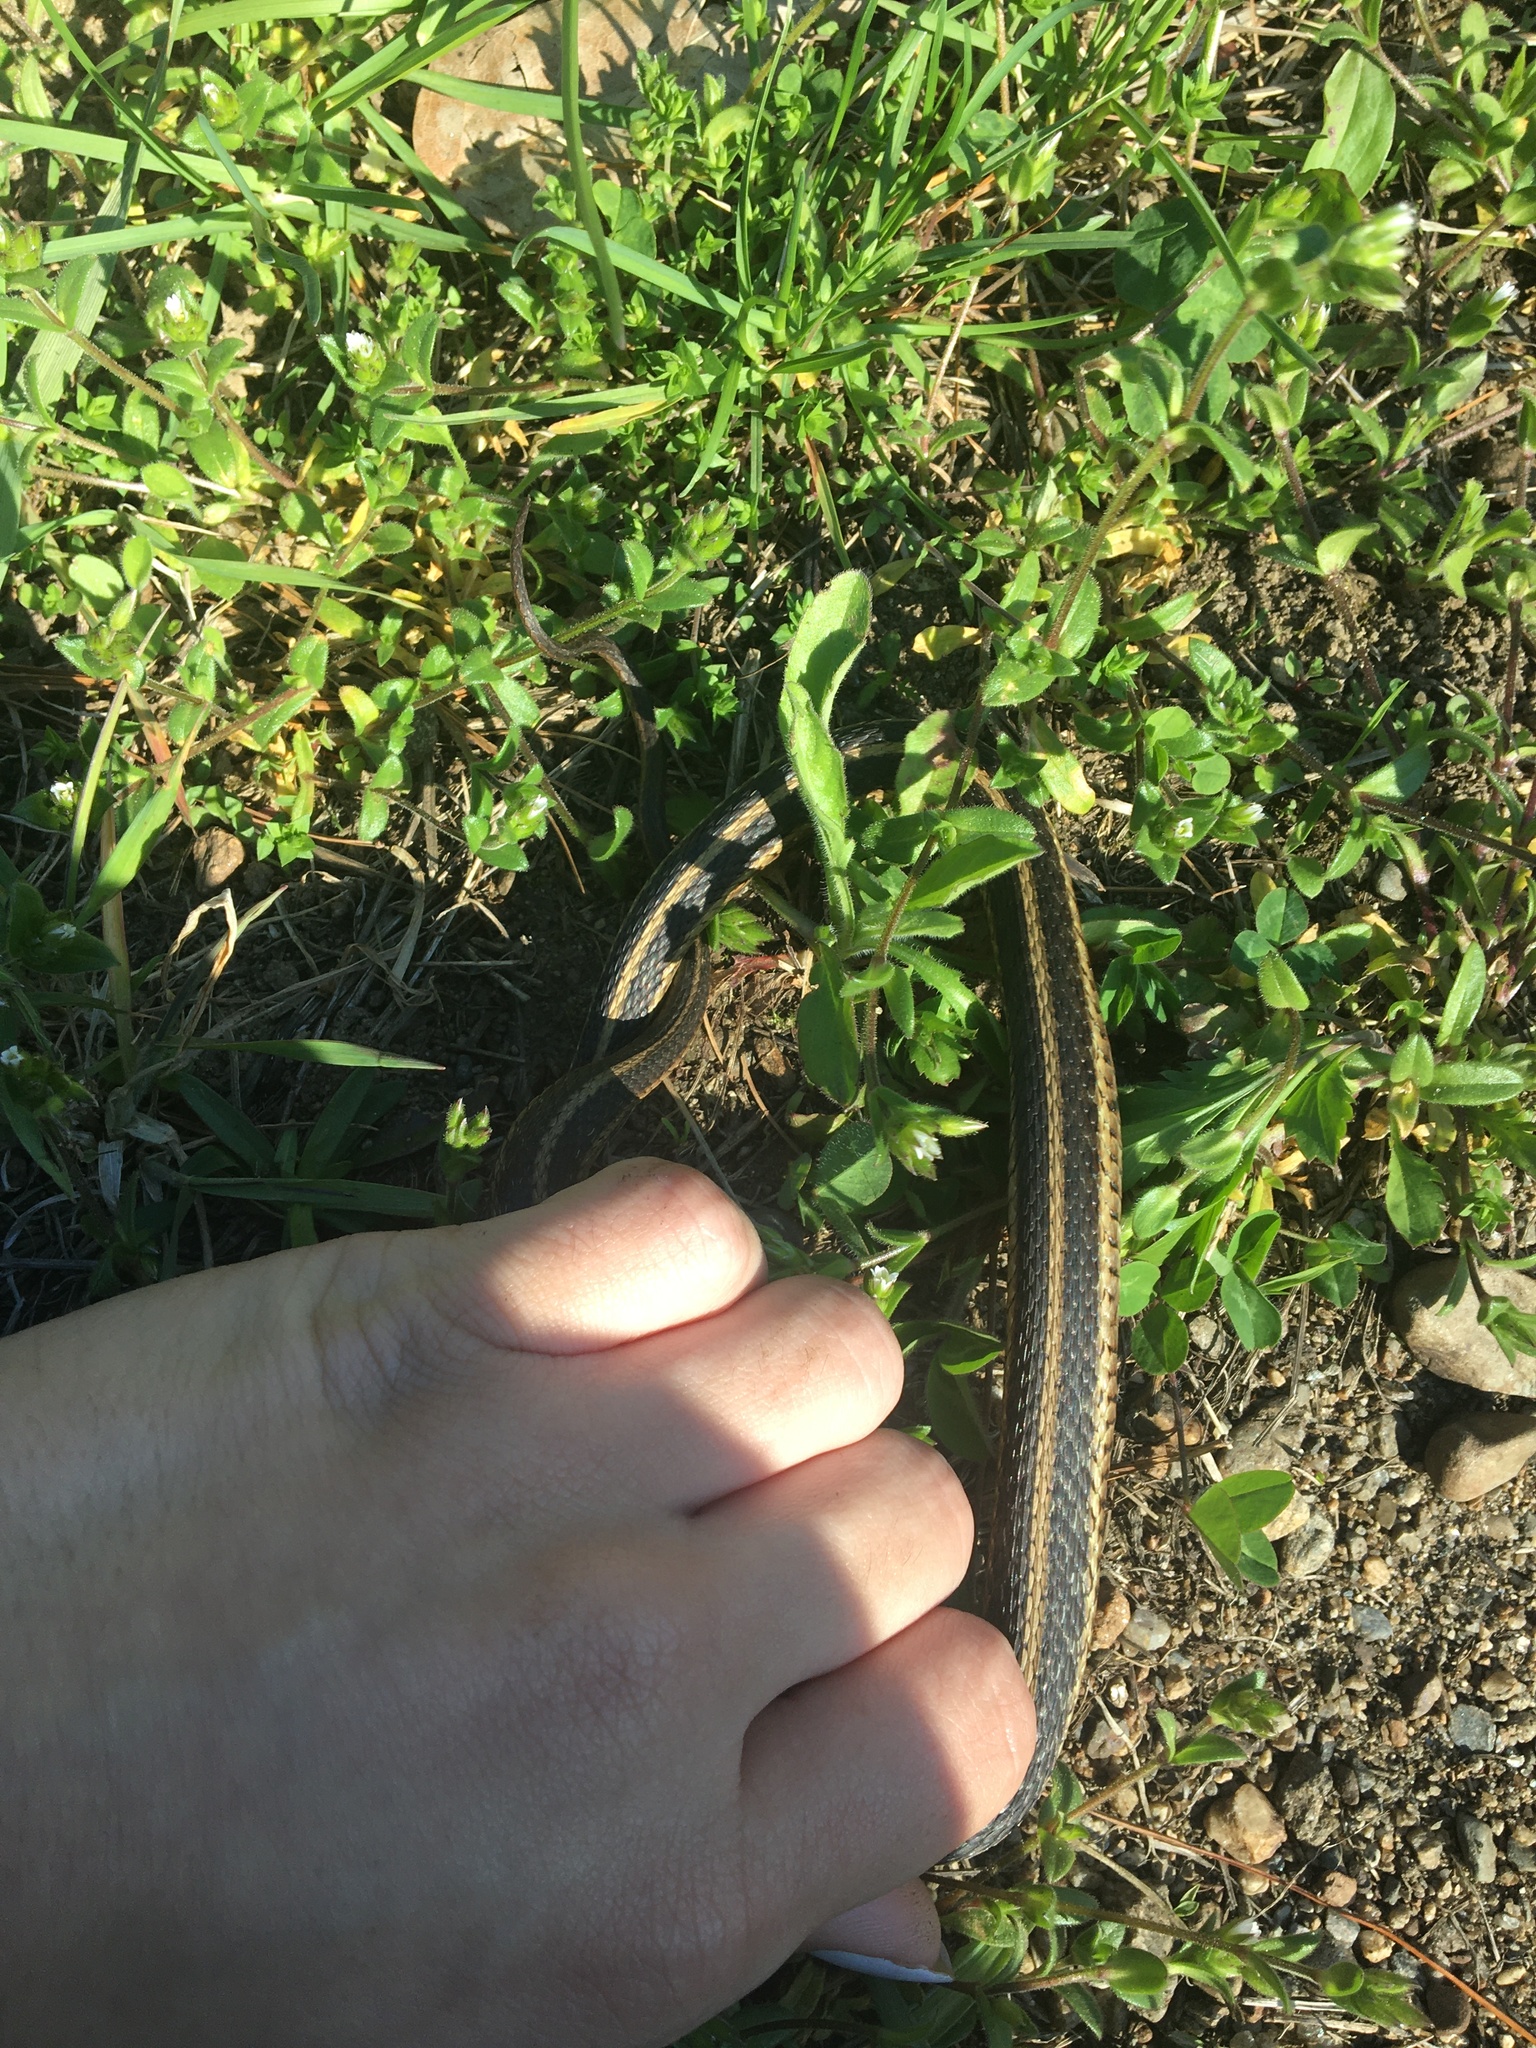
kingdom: Animalia
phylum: Chordata
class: Squamata
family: Colubridae
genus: Thamnophis
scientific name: Thamnophis sirtalis
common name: Common garter snake
